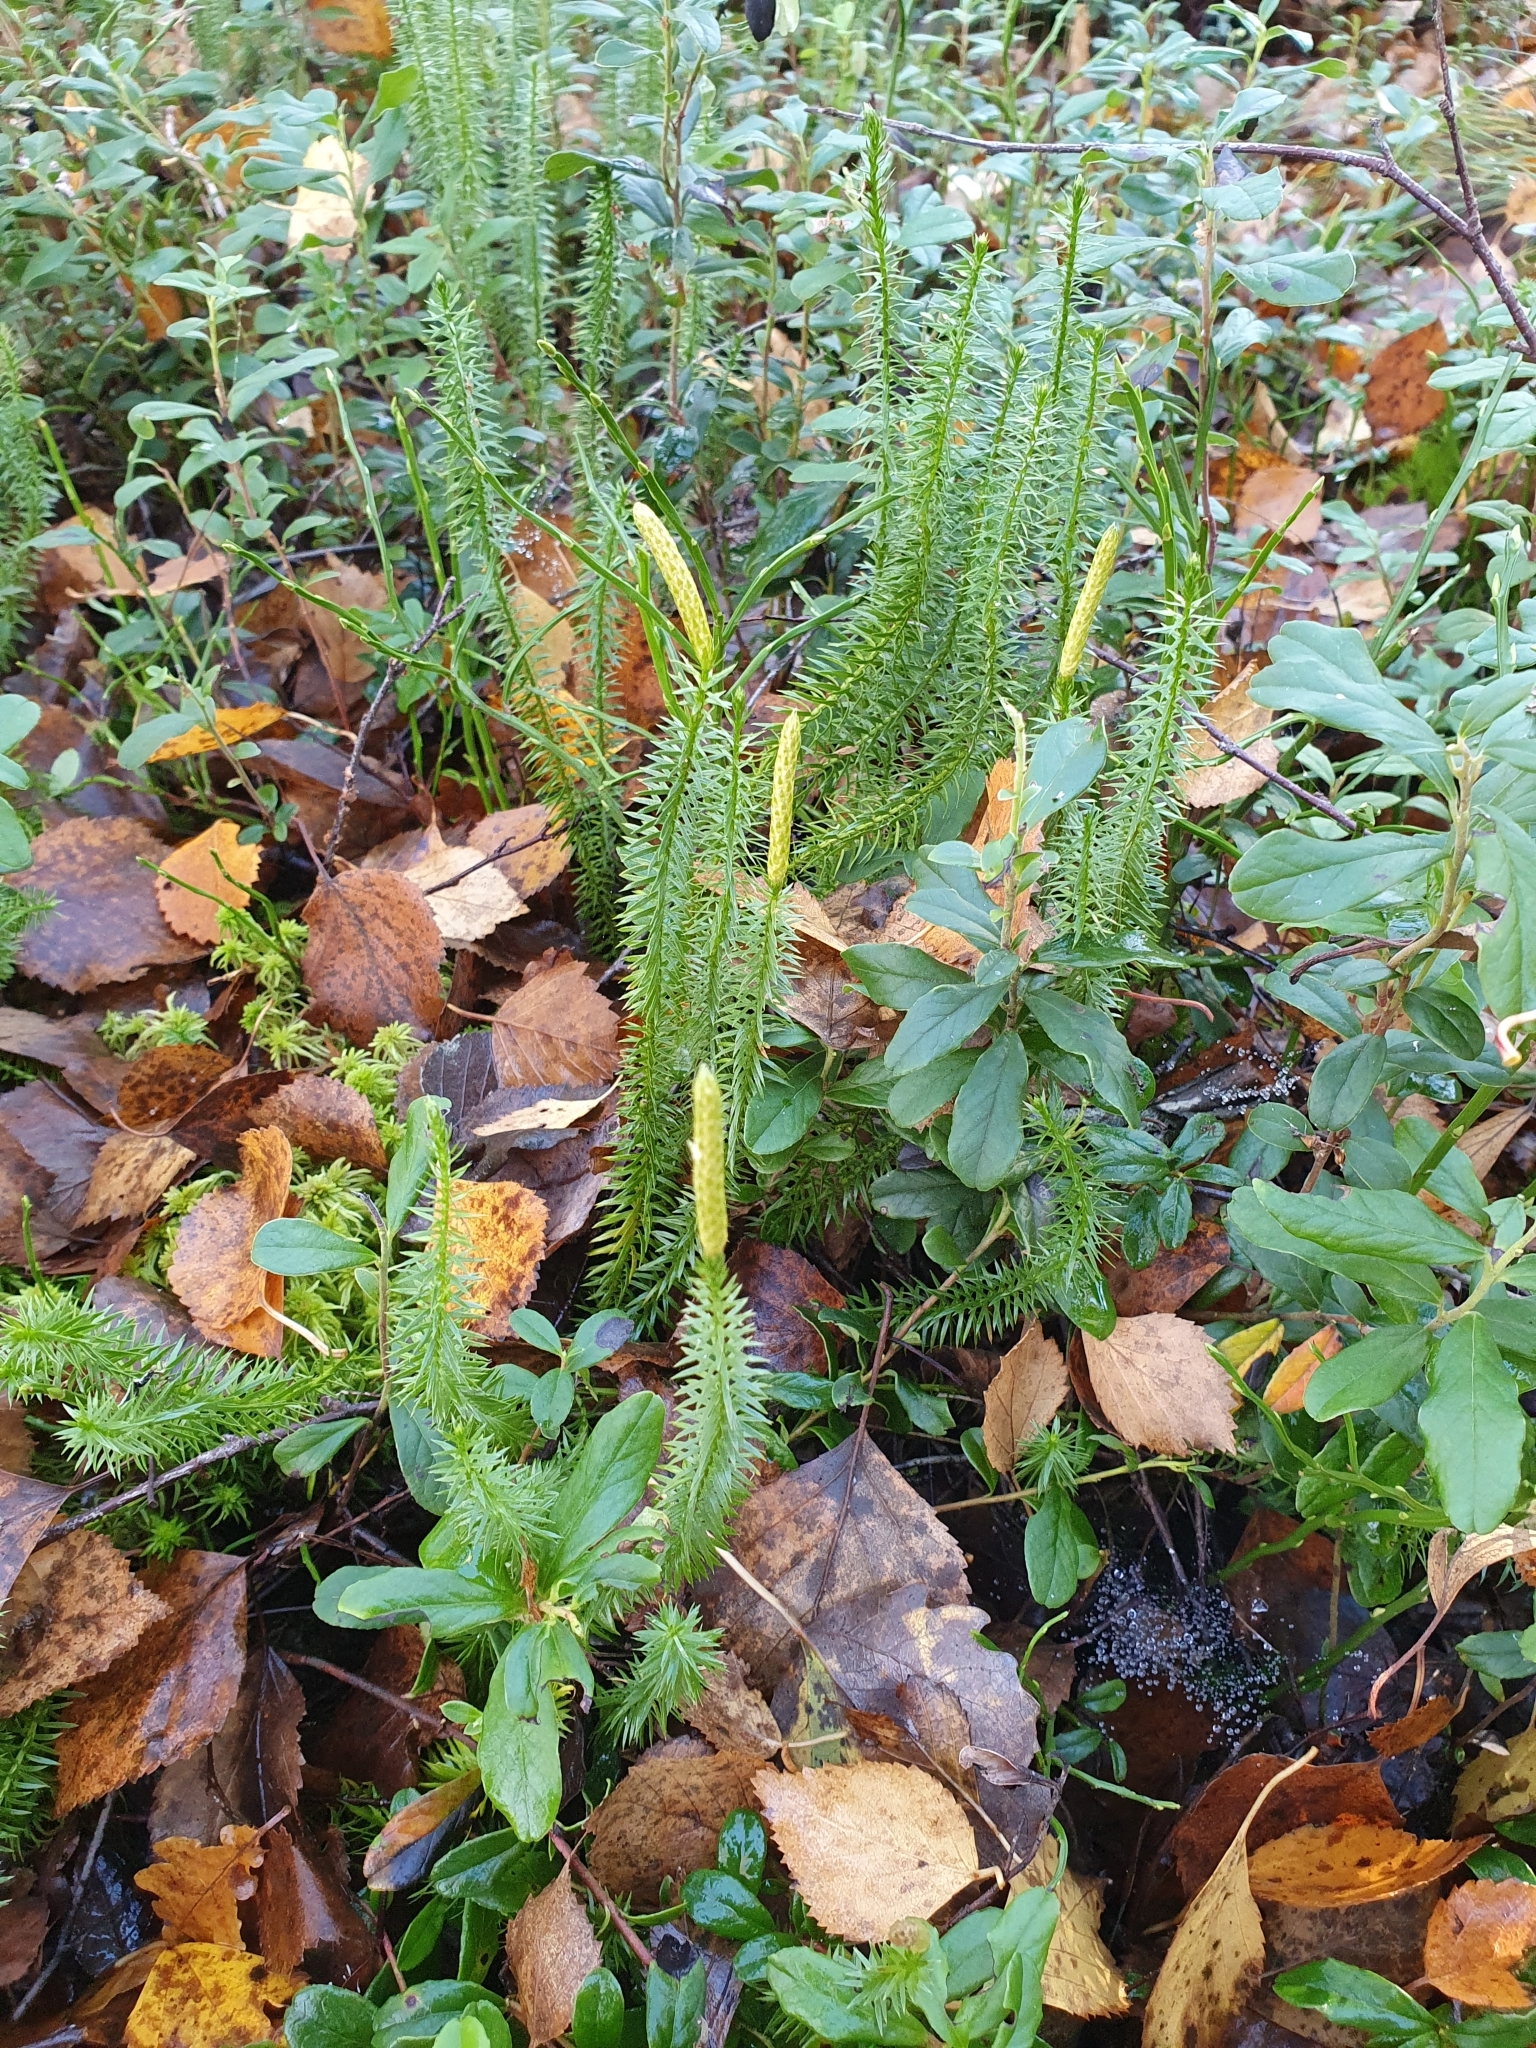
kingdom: Plantae
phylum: Tracheophyta
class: Lycopodiopsida
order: Lycopodiales
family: Lycopodiaceae
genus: Spinulum
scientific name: Spinulum annotinum
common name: Interrupted club-moss
